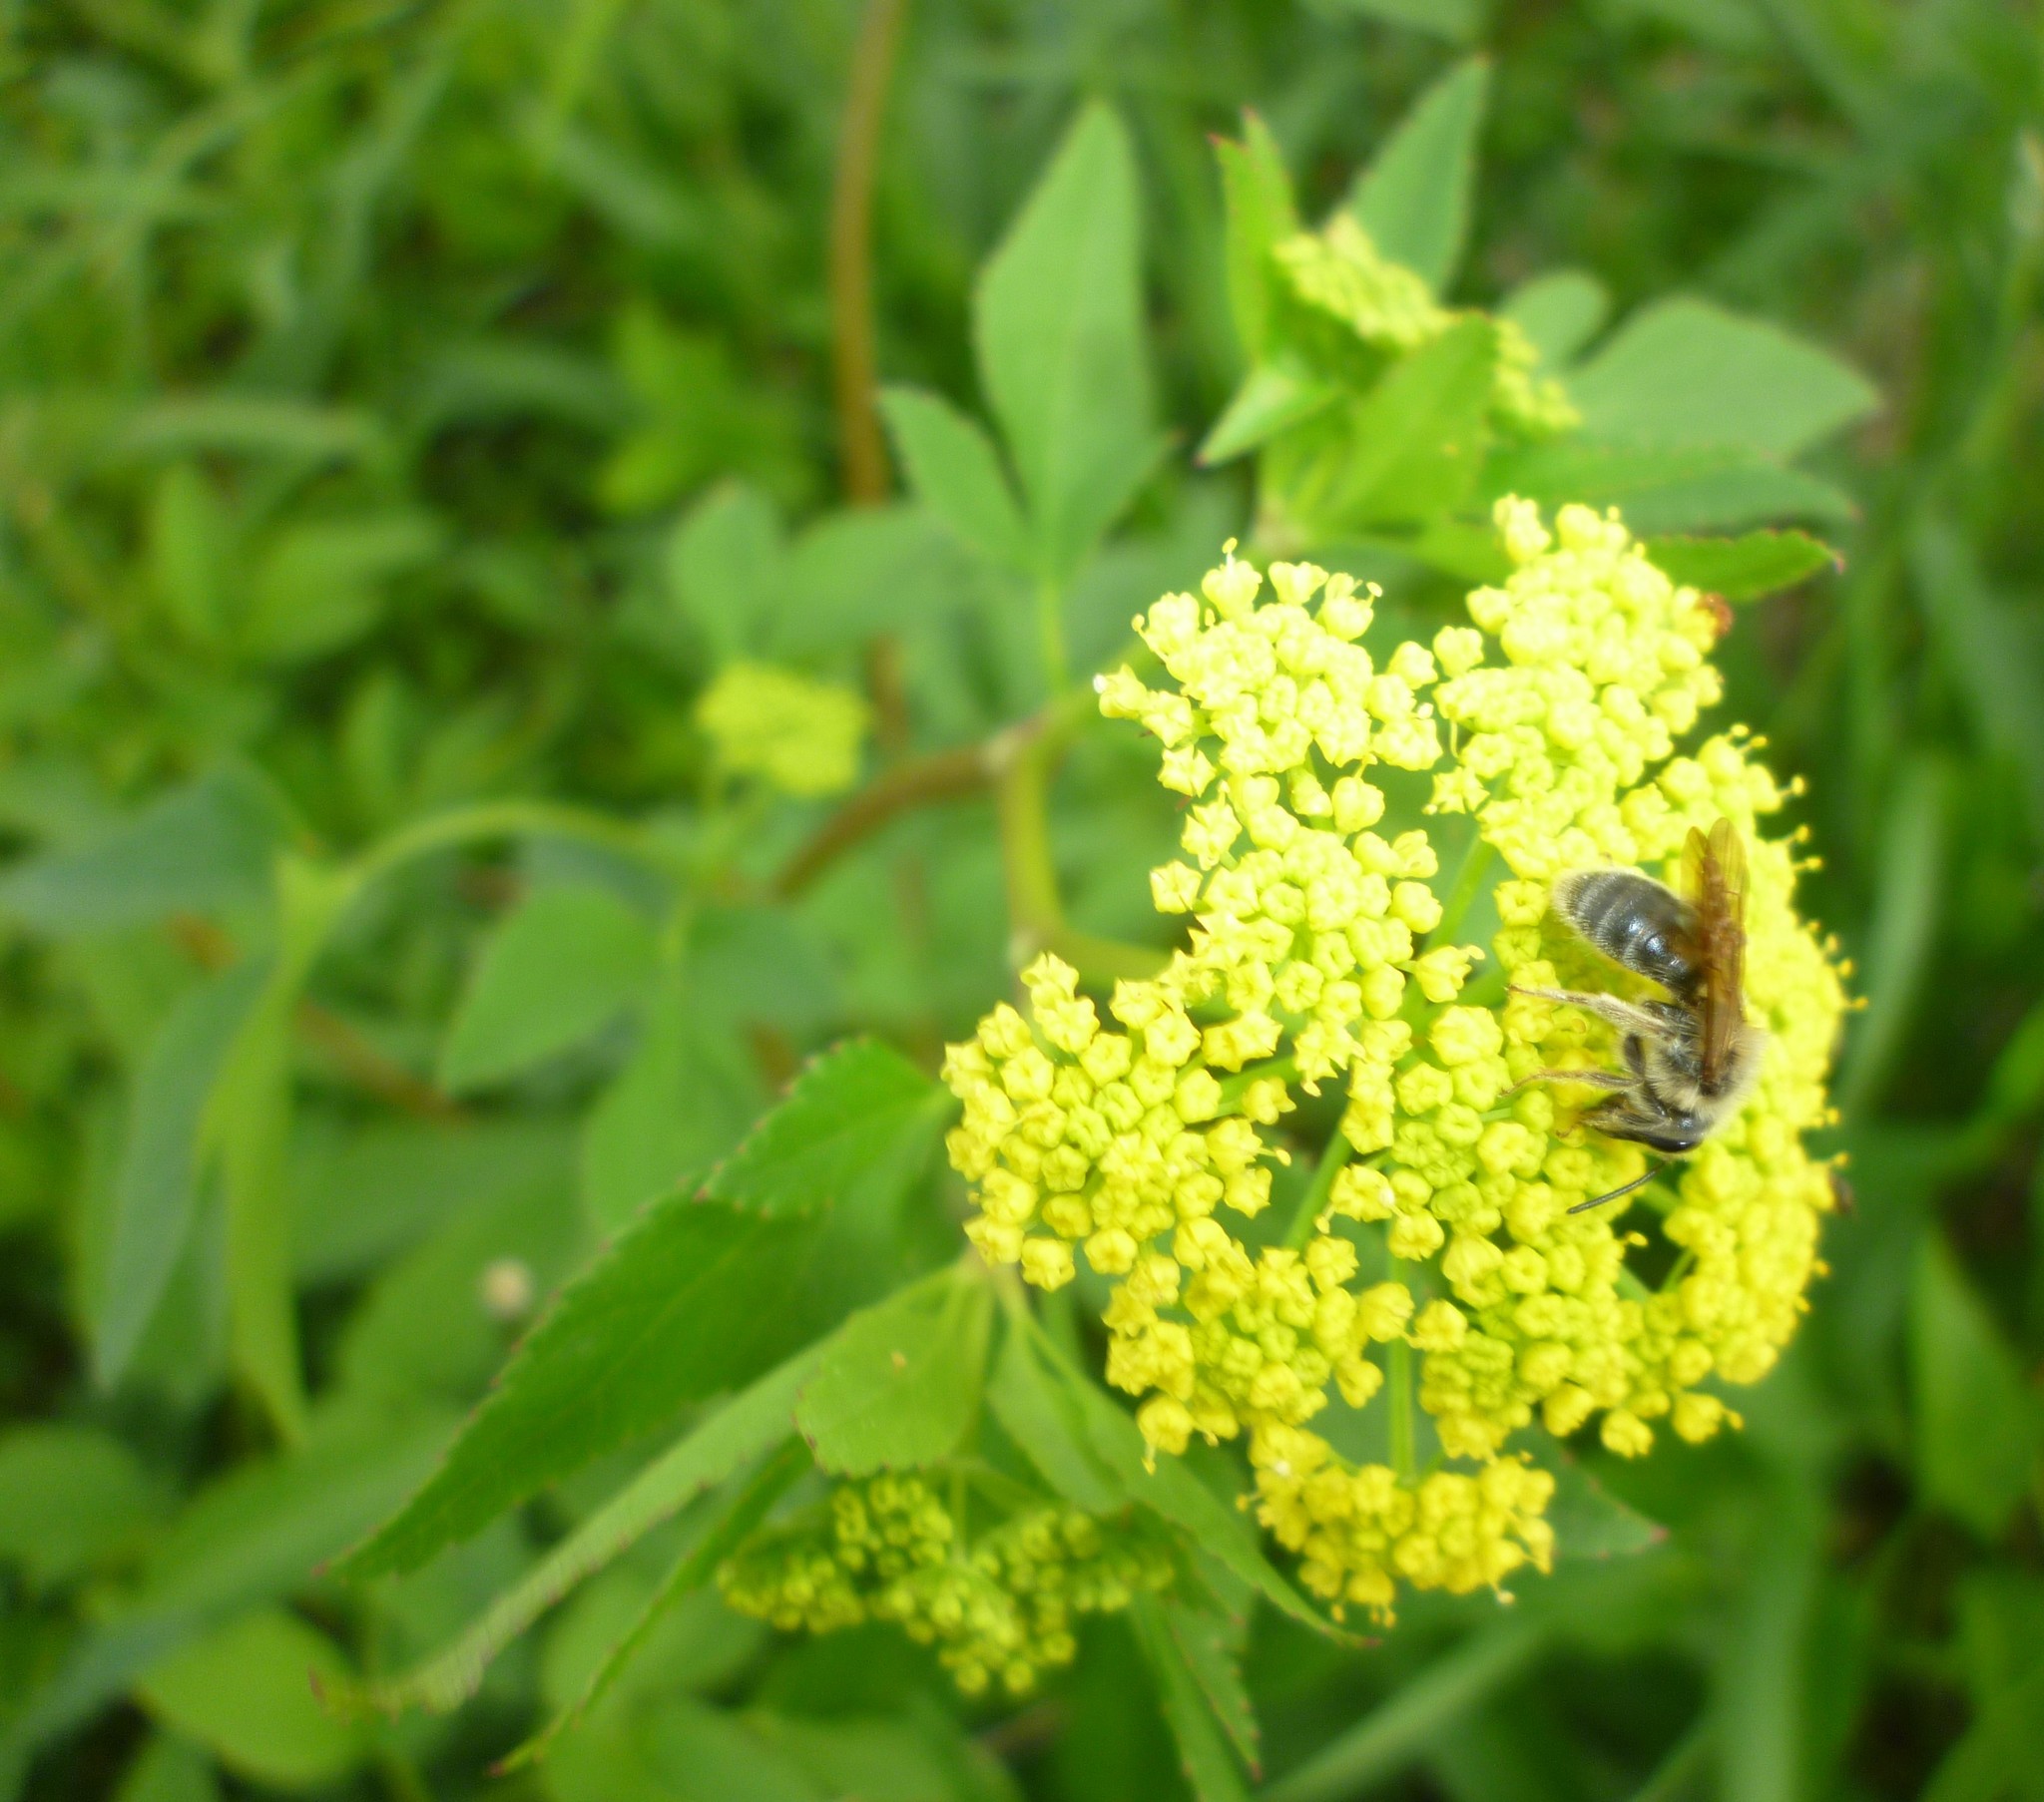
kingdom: Plantae
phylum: Tracheophyta
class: Magnoliopsida
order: Apiales
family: Apiaceae
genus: Zizia
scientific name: Zizia aurea
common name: Golden alexanders
